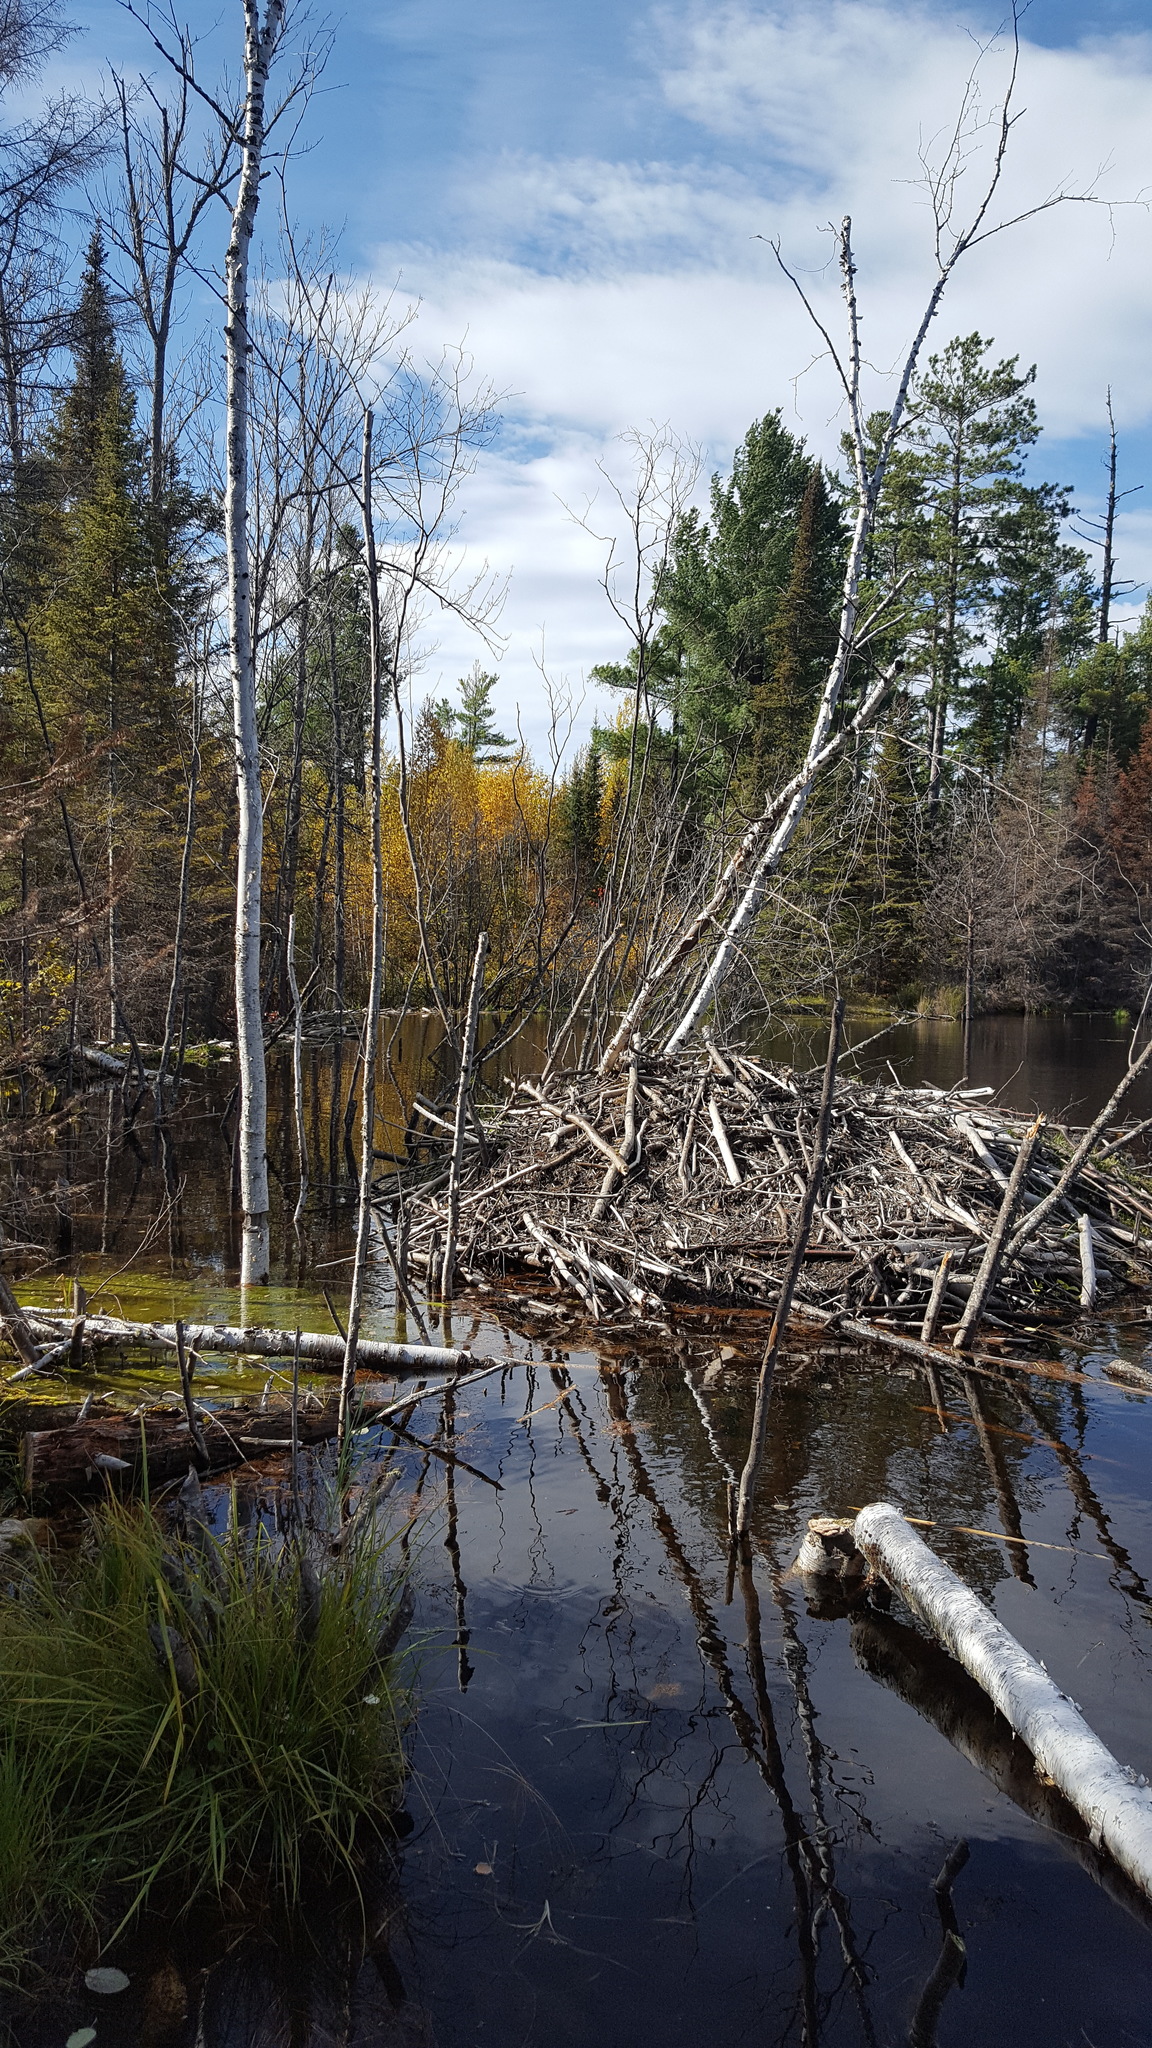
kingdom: Animalia
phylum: Chordata
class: Mammalia
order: Rodentia
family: Castoridae
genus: Castor
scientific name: Castor canadensis
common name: American beaver
